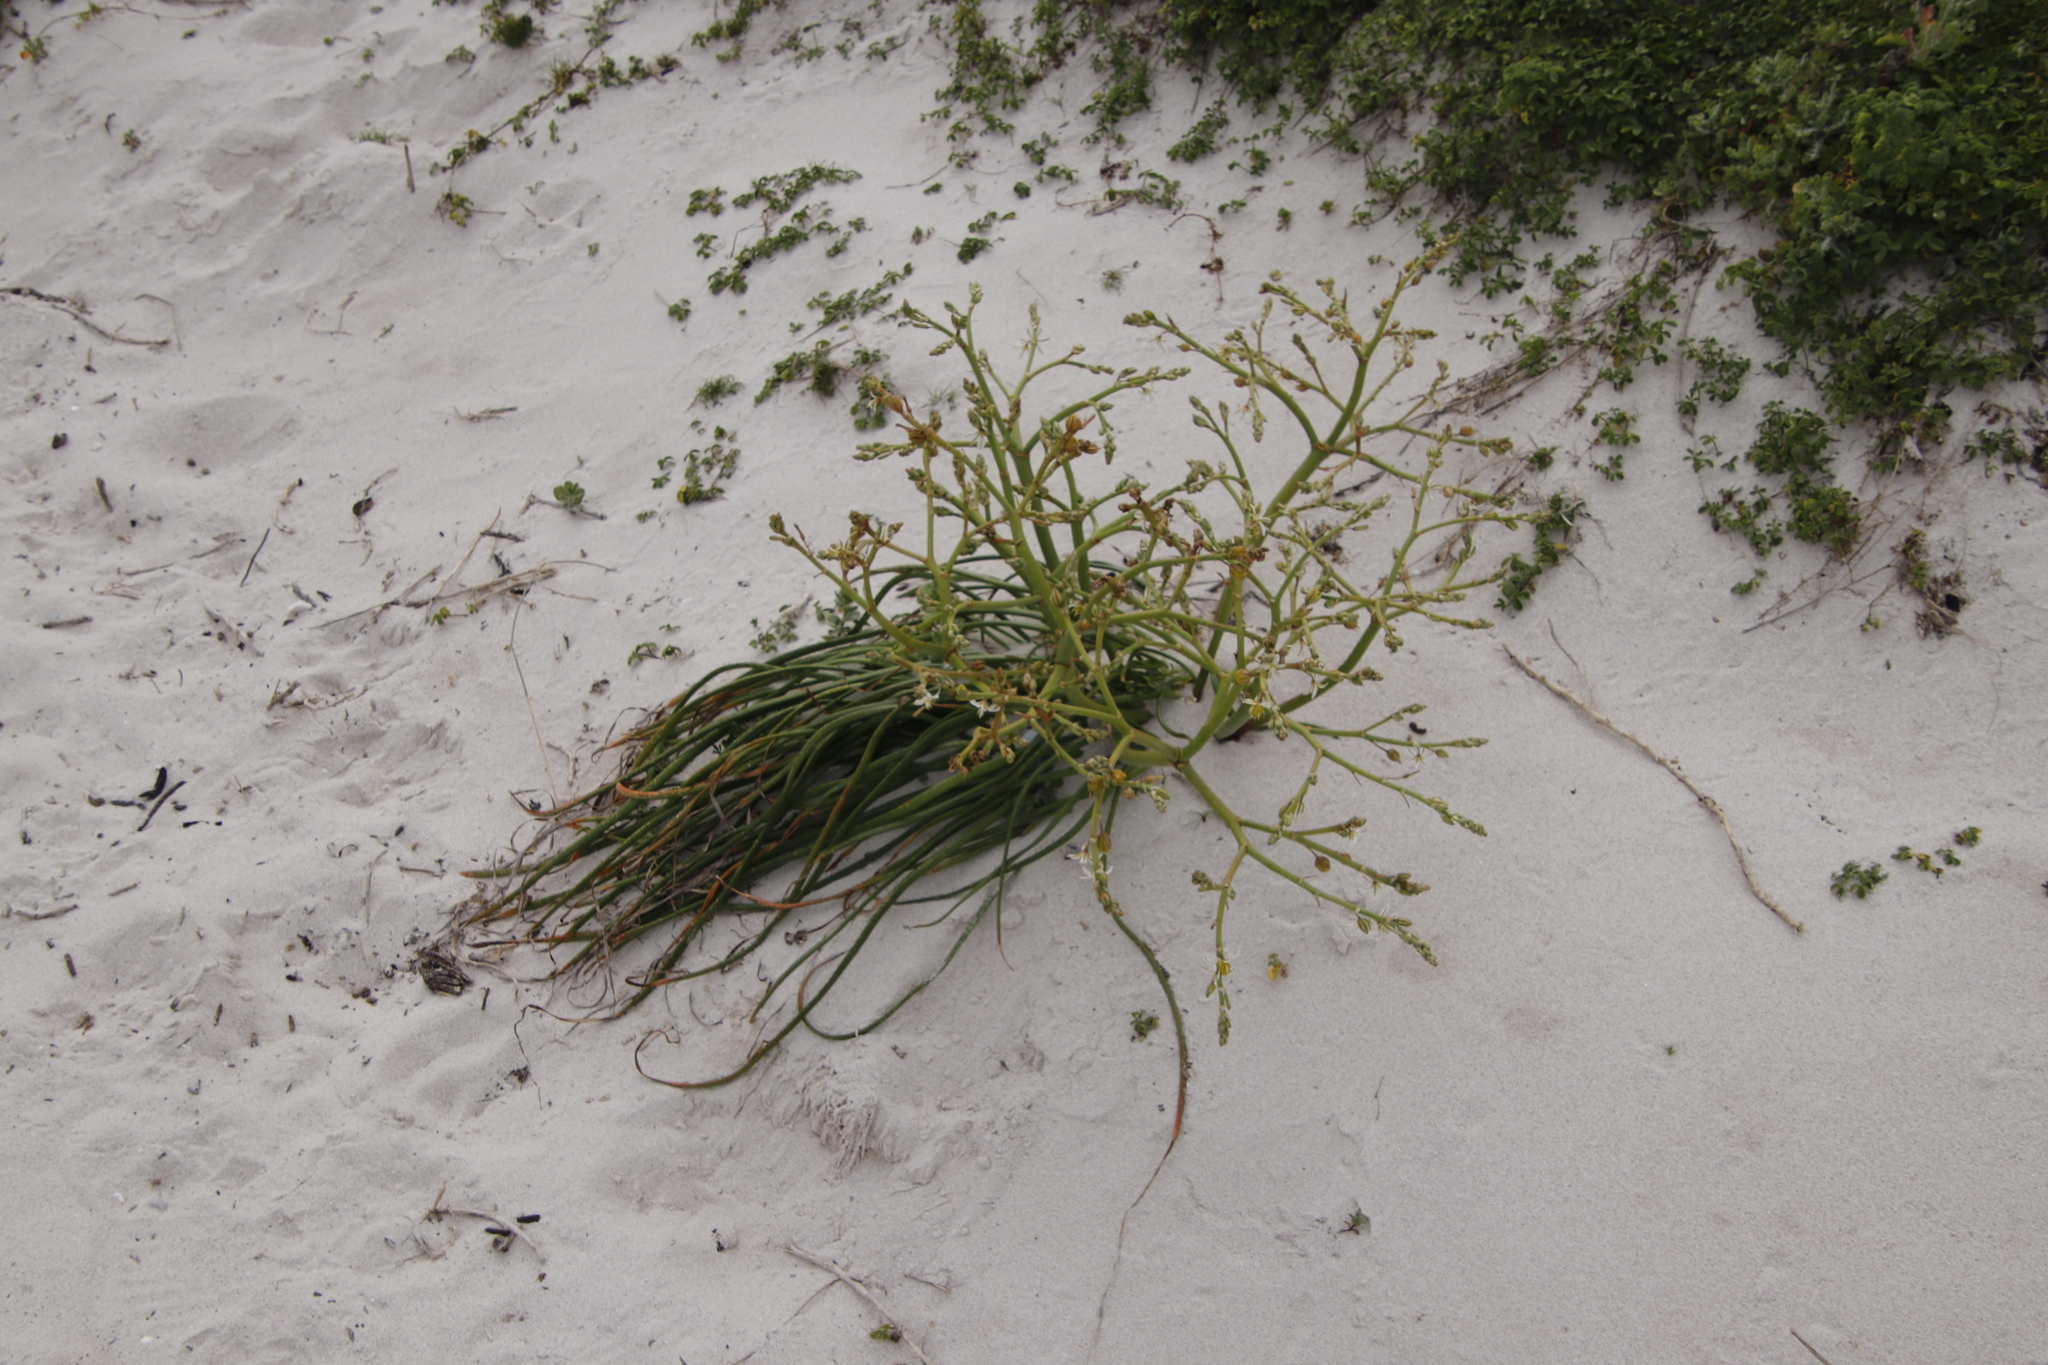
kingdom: Plantae
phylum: Tracheophyta
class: Liliopsida
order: Asparagales
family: Asphodelaceae
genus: Trachyandra
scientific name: Trachyandra divaricata
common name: Dune onionweed
